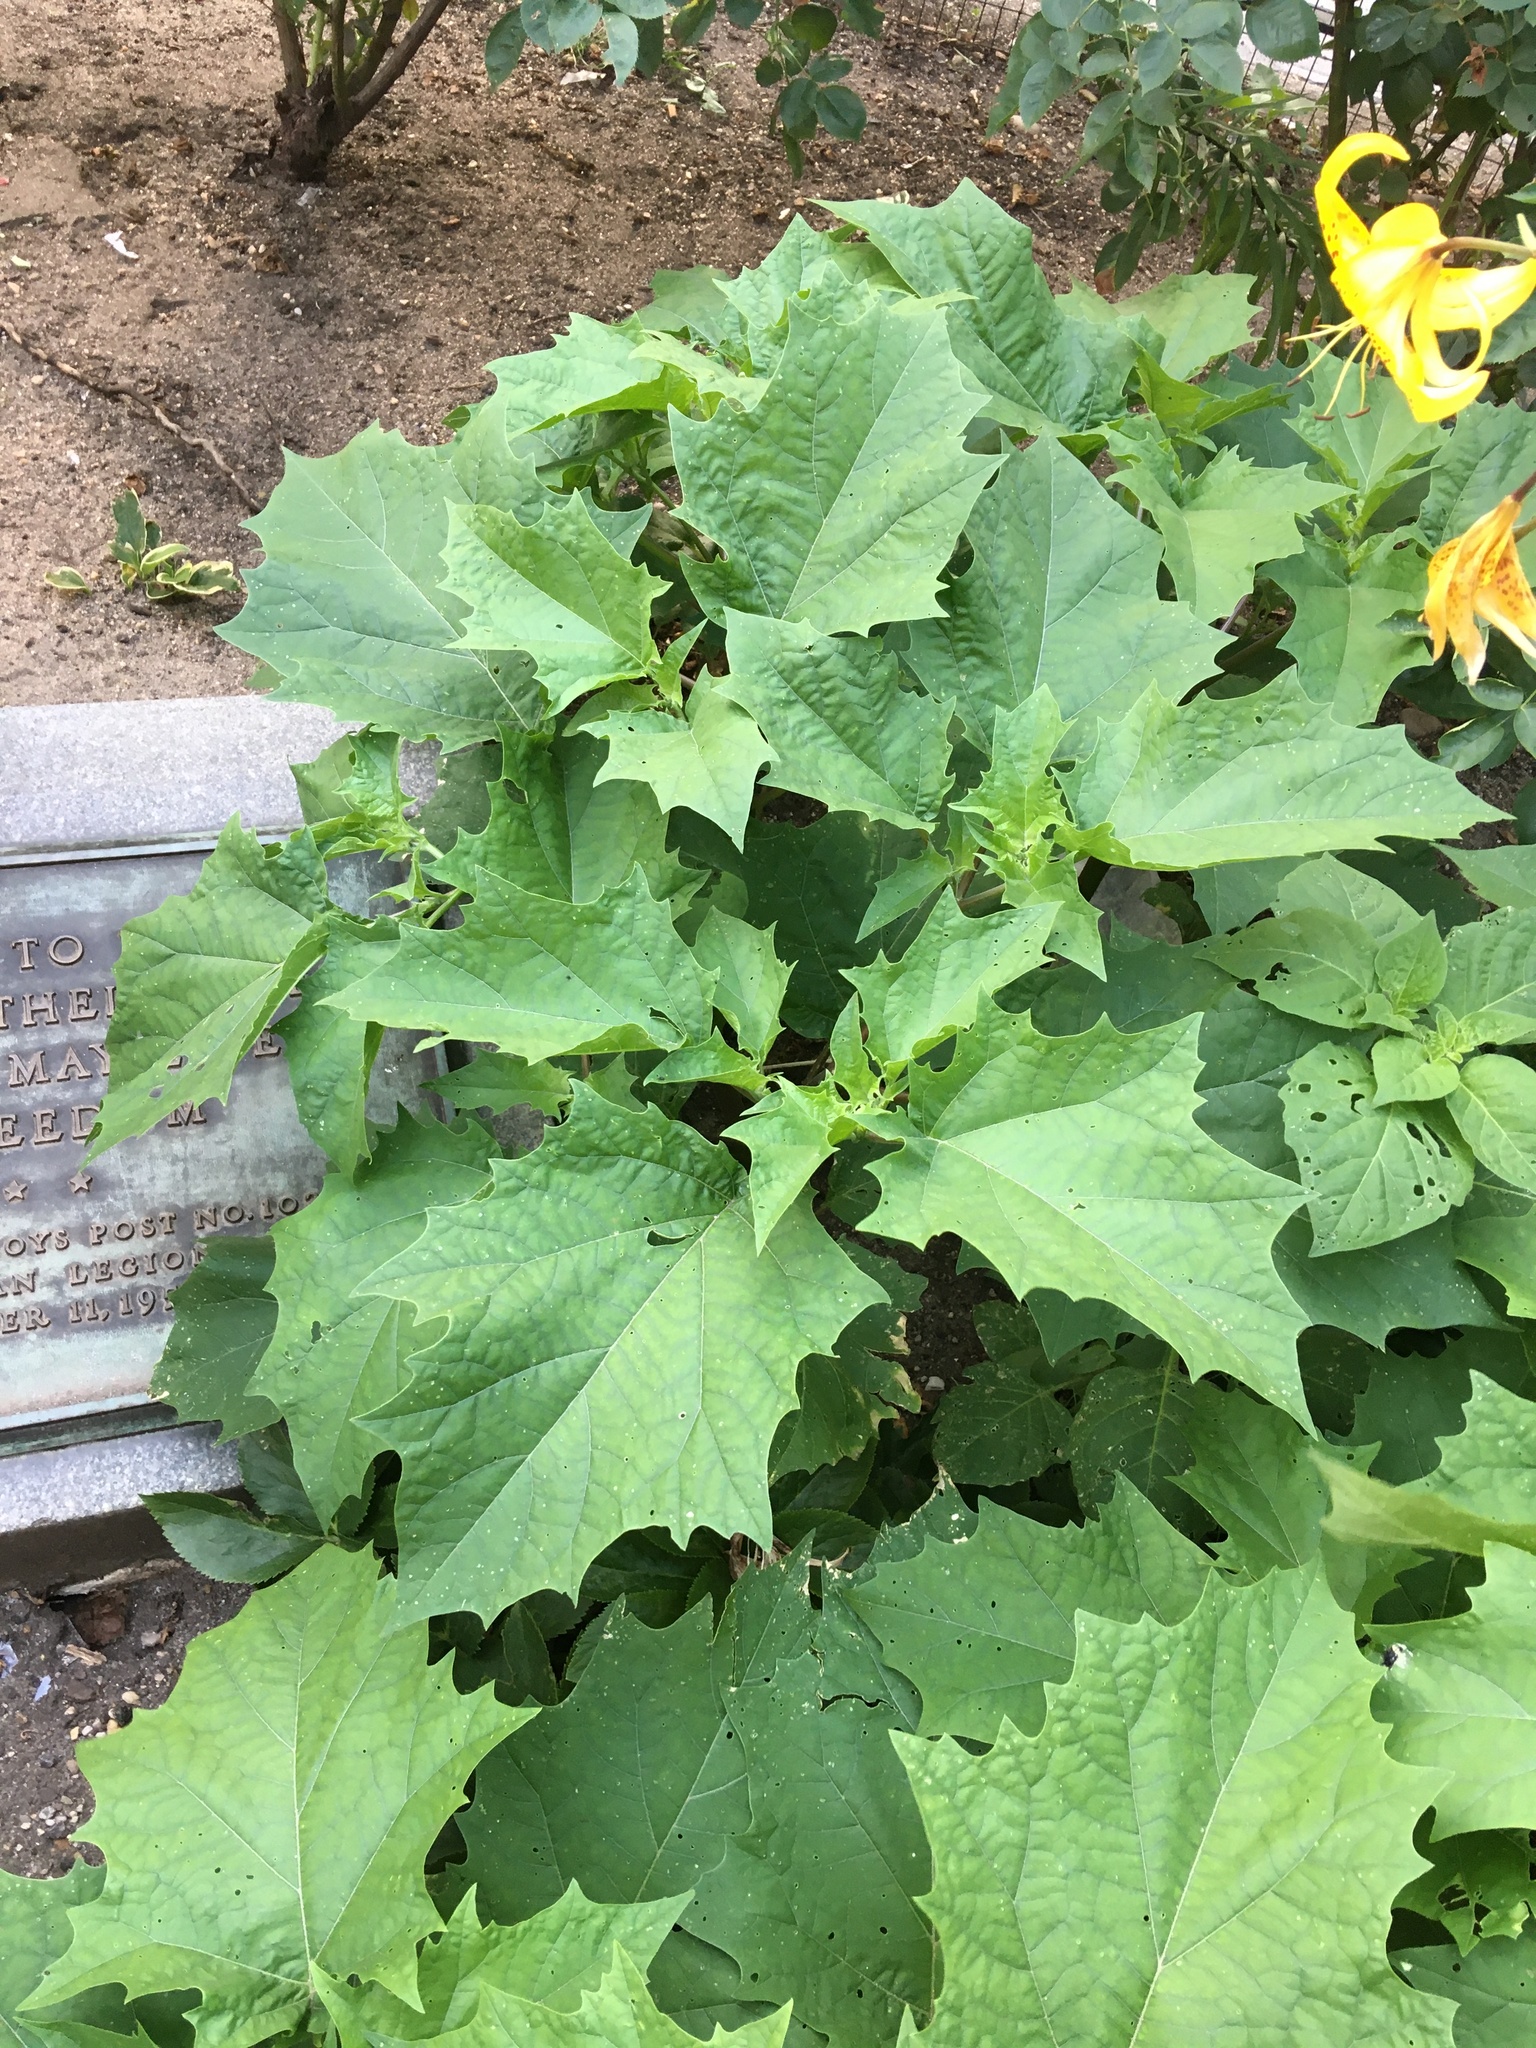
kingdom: Plantae
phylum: Tracheophyta
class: Magnoliopsida
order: Solanales
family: Solanaceae
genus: Datura
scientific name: Datura stramonium
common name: Thorn-apple
